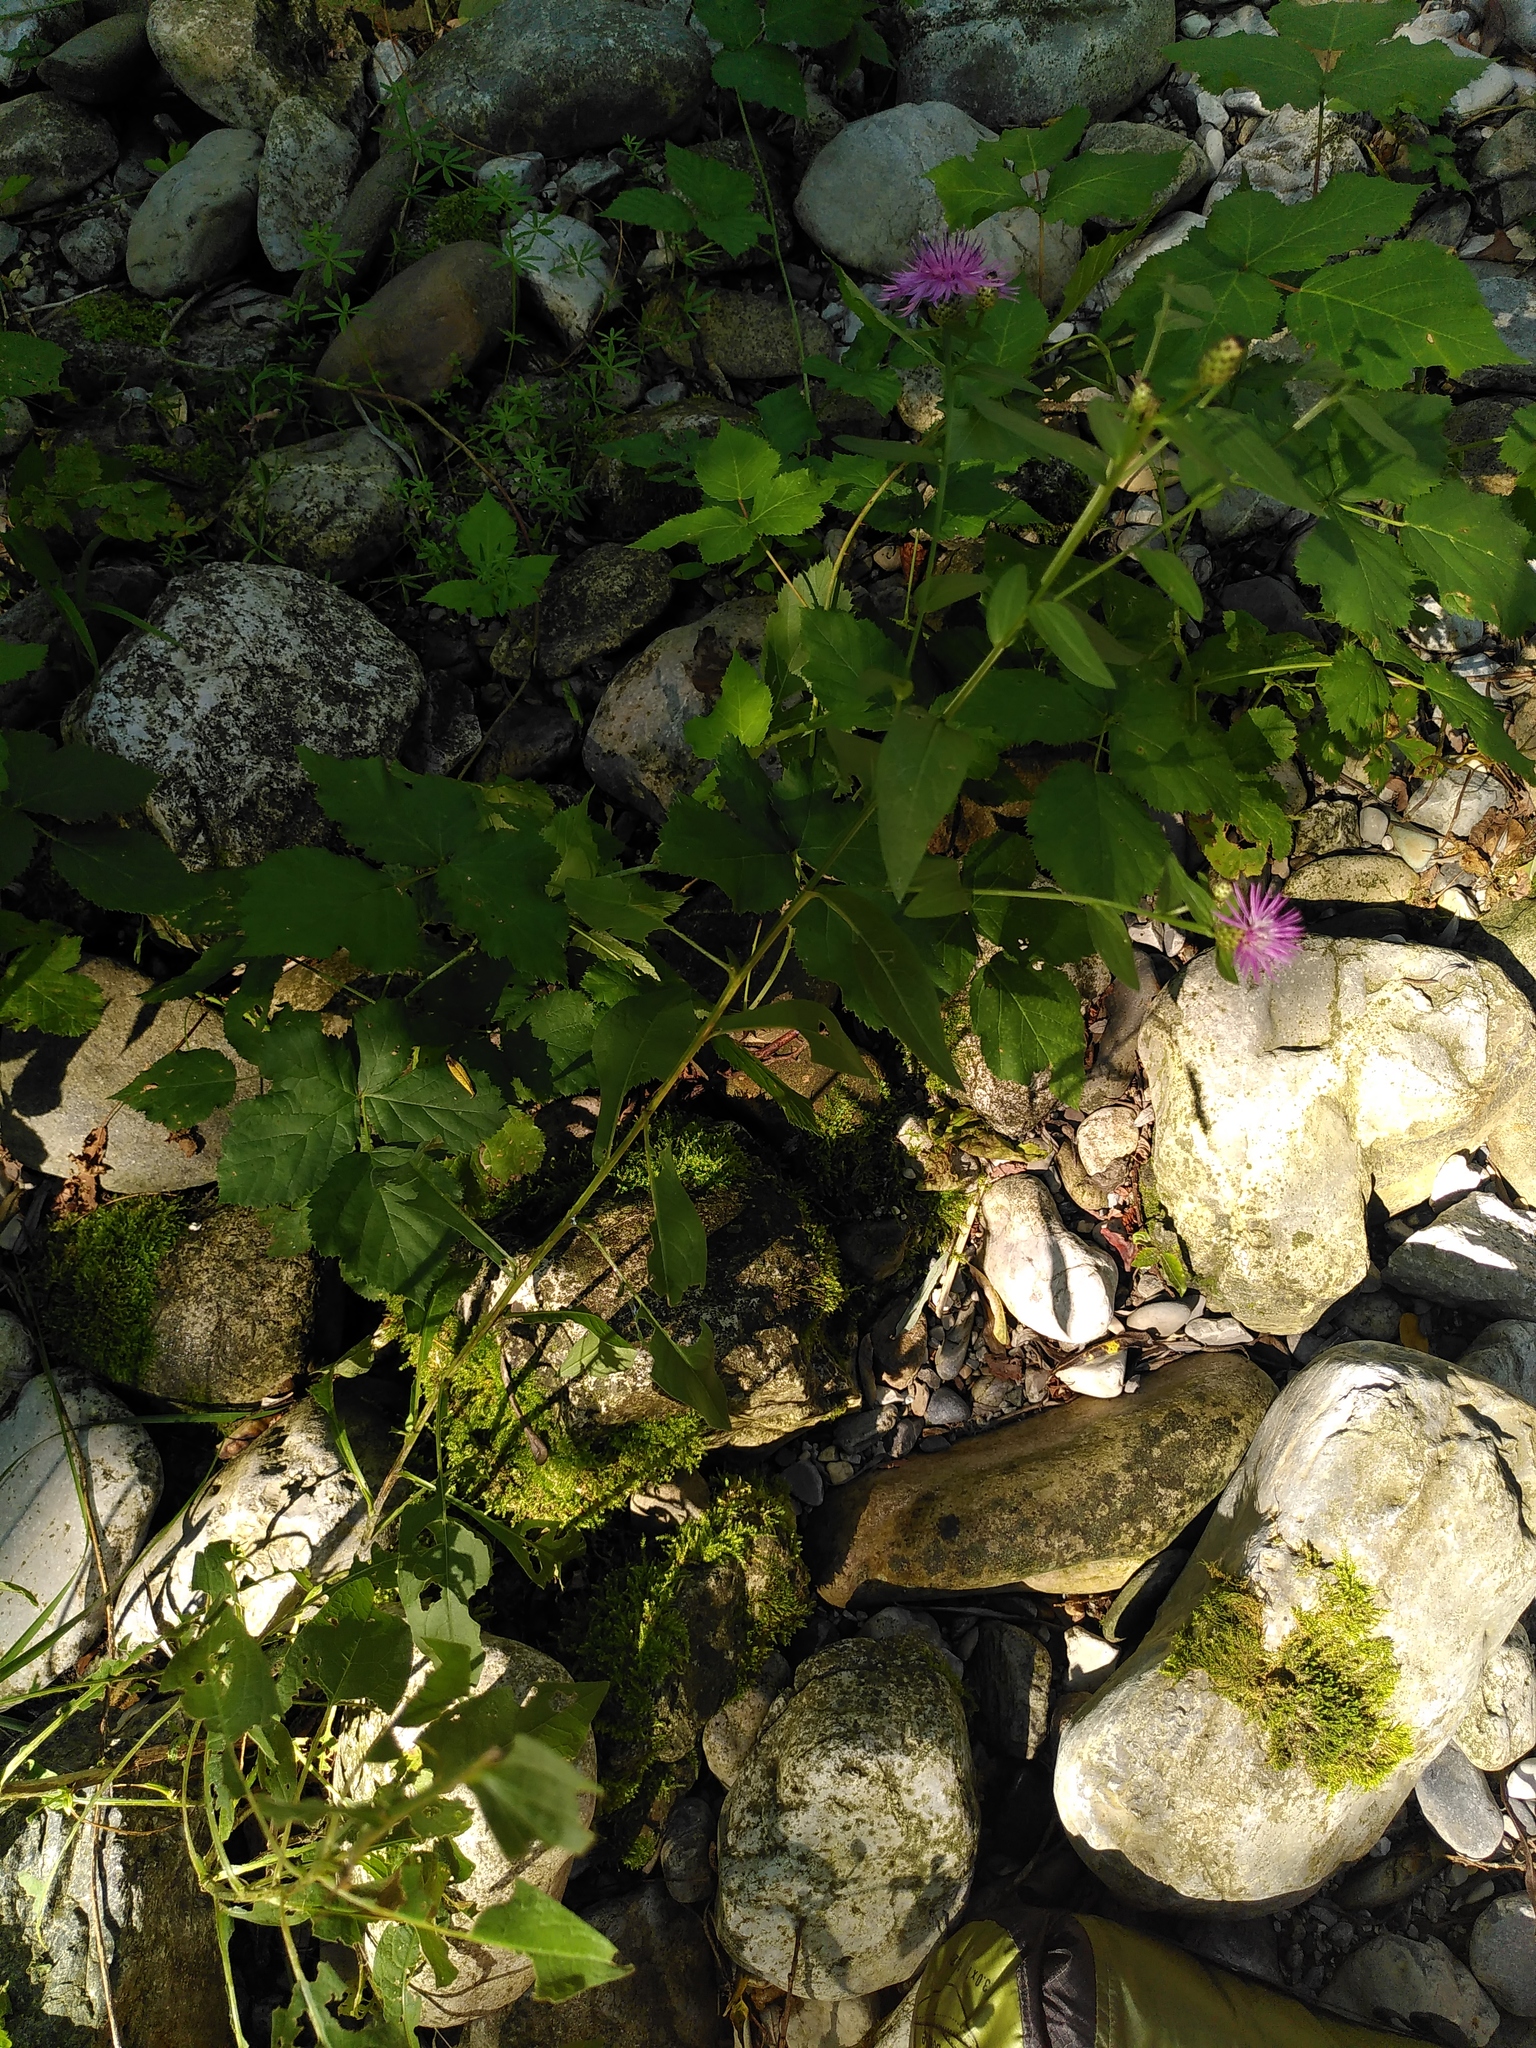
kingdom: Plantae
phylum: Tracheophyta
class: Magnoliopsida
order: Asterales
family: Asteraceae
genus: Centaurea
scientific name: Centaurea nigrescens
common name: Tyrol knapweed
